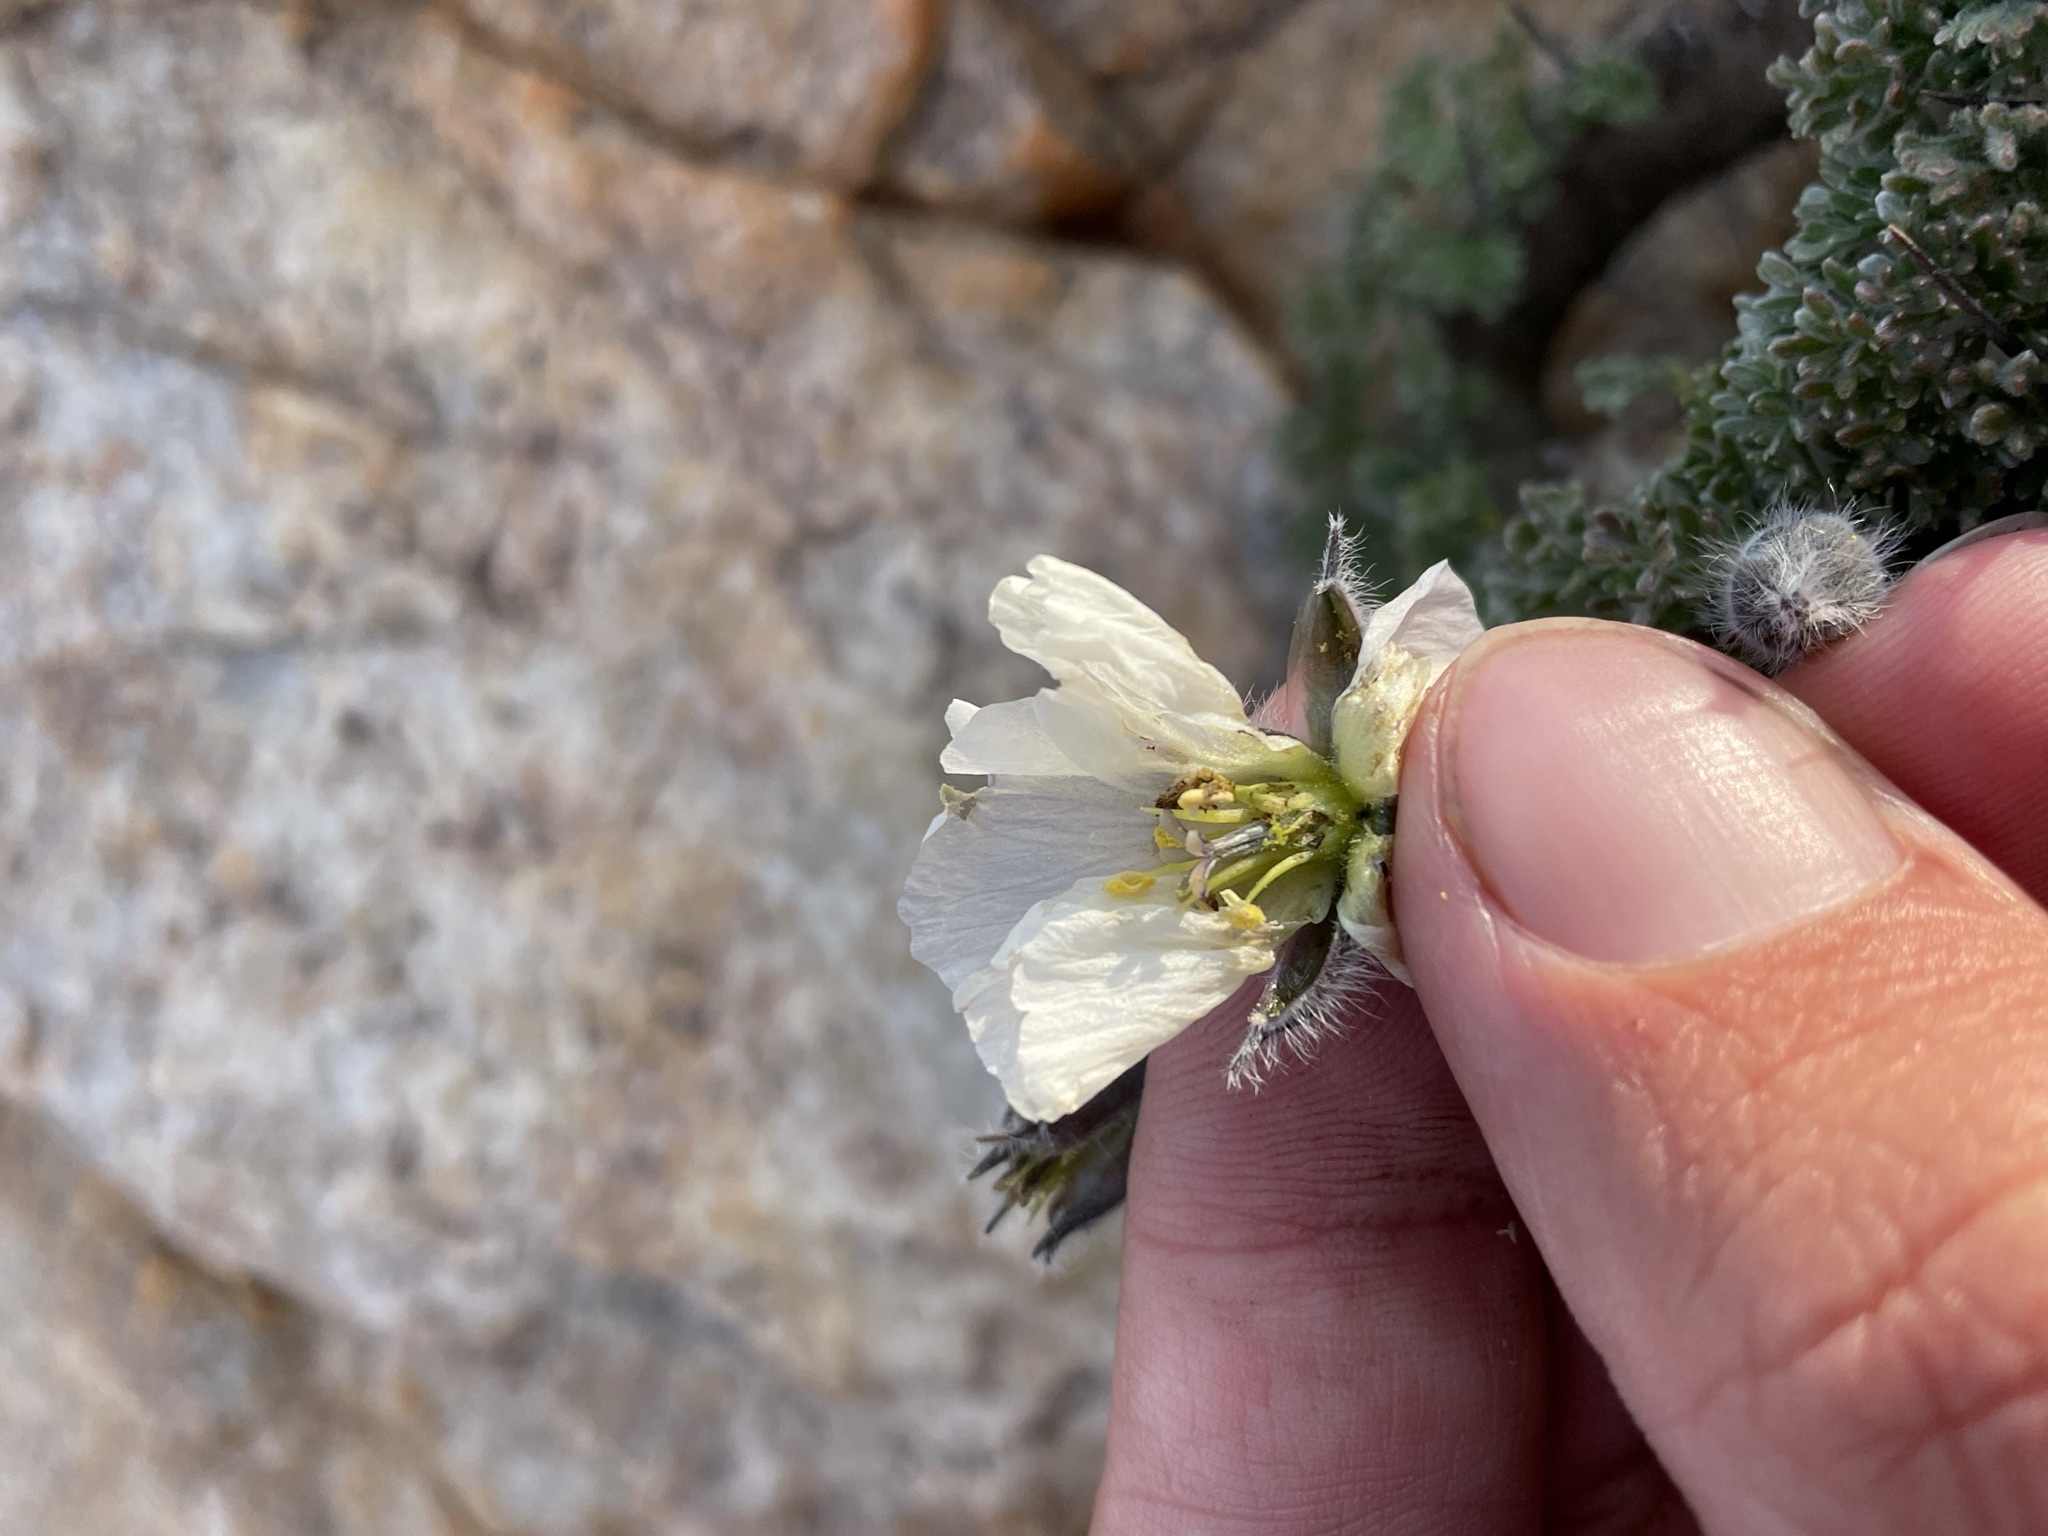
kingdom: Plantae
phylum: Tracheophyta
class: Magnoliopsida
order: Geraniales
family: Geraniaceae
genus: Monsonia
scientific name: Monsonia herrei
